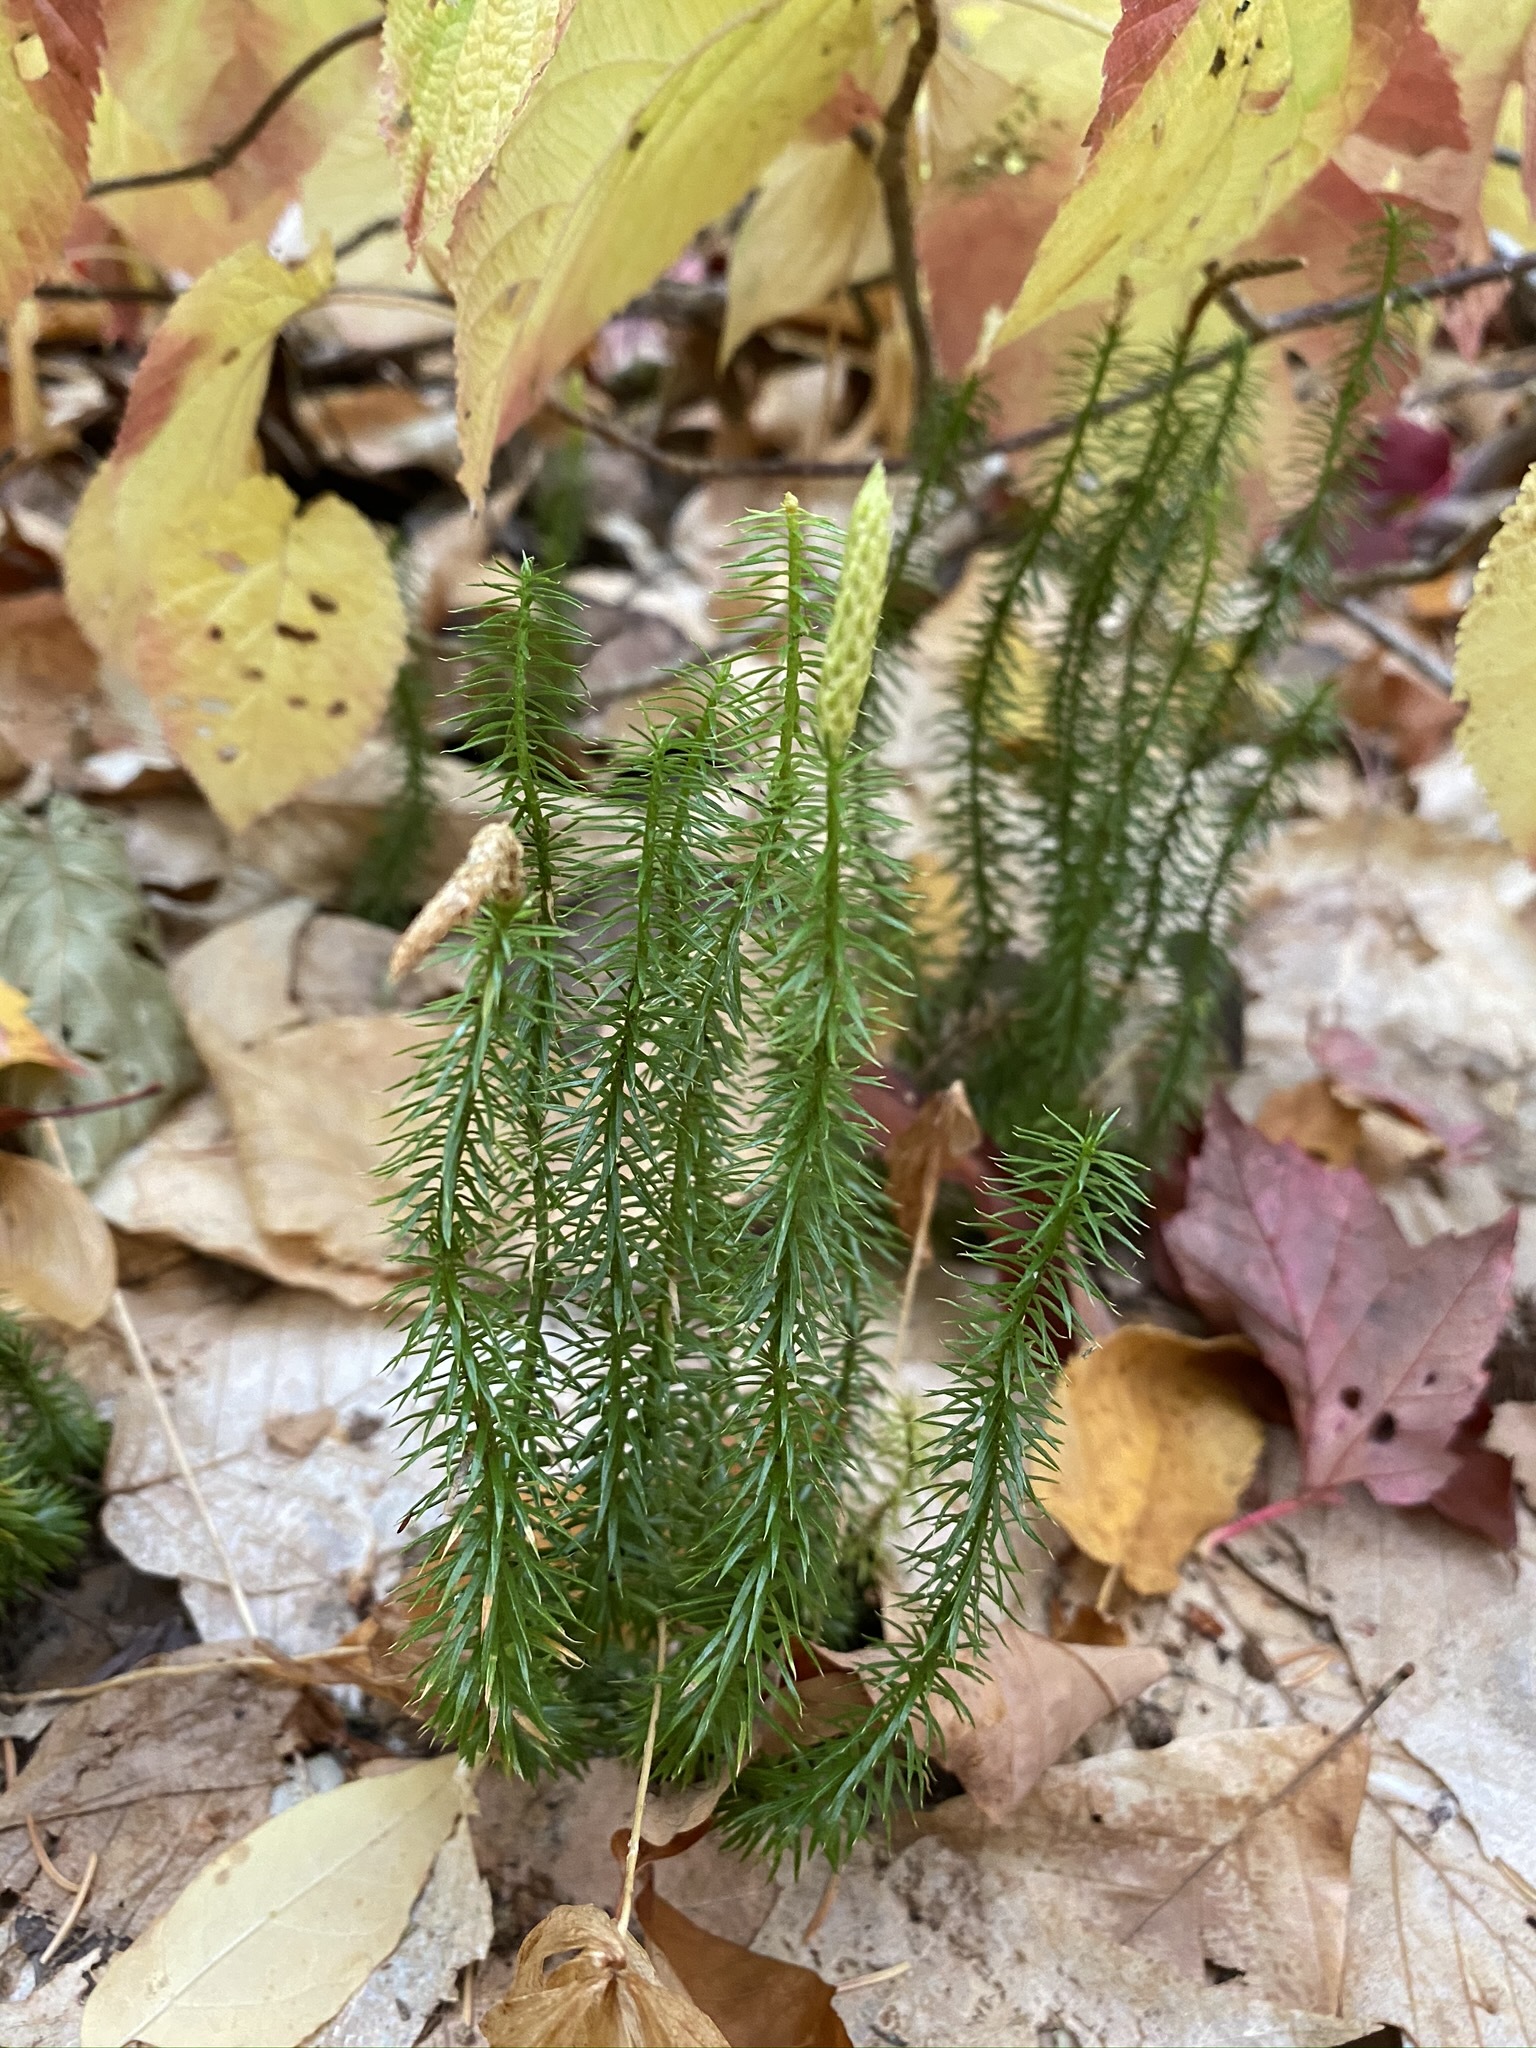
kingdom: Plantae
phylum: Tracheophyta
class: Lycopodiopsida
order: Lycopodiales
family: Lycopodiaceae
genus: Spinulum
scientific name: Spinulum annotinum
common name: Interrupted club-moss
